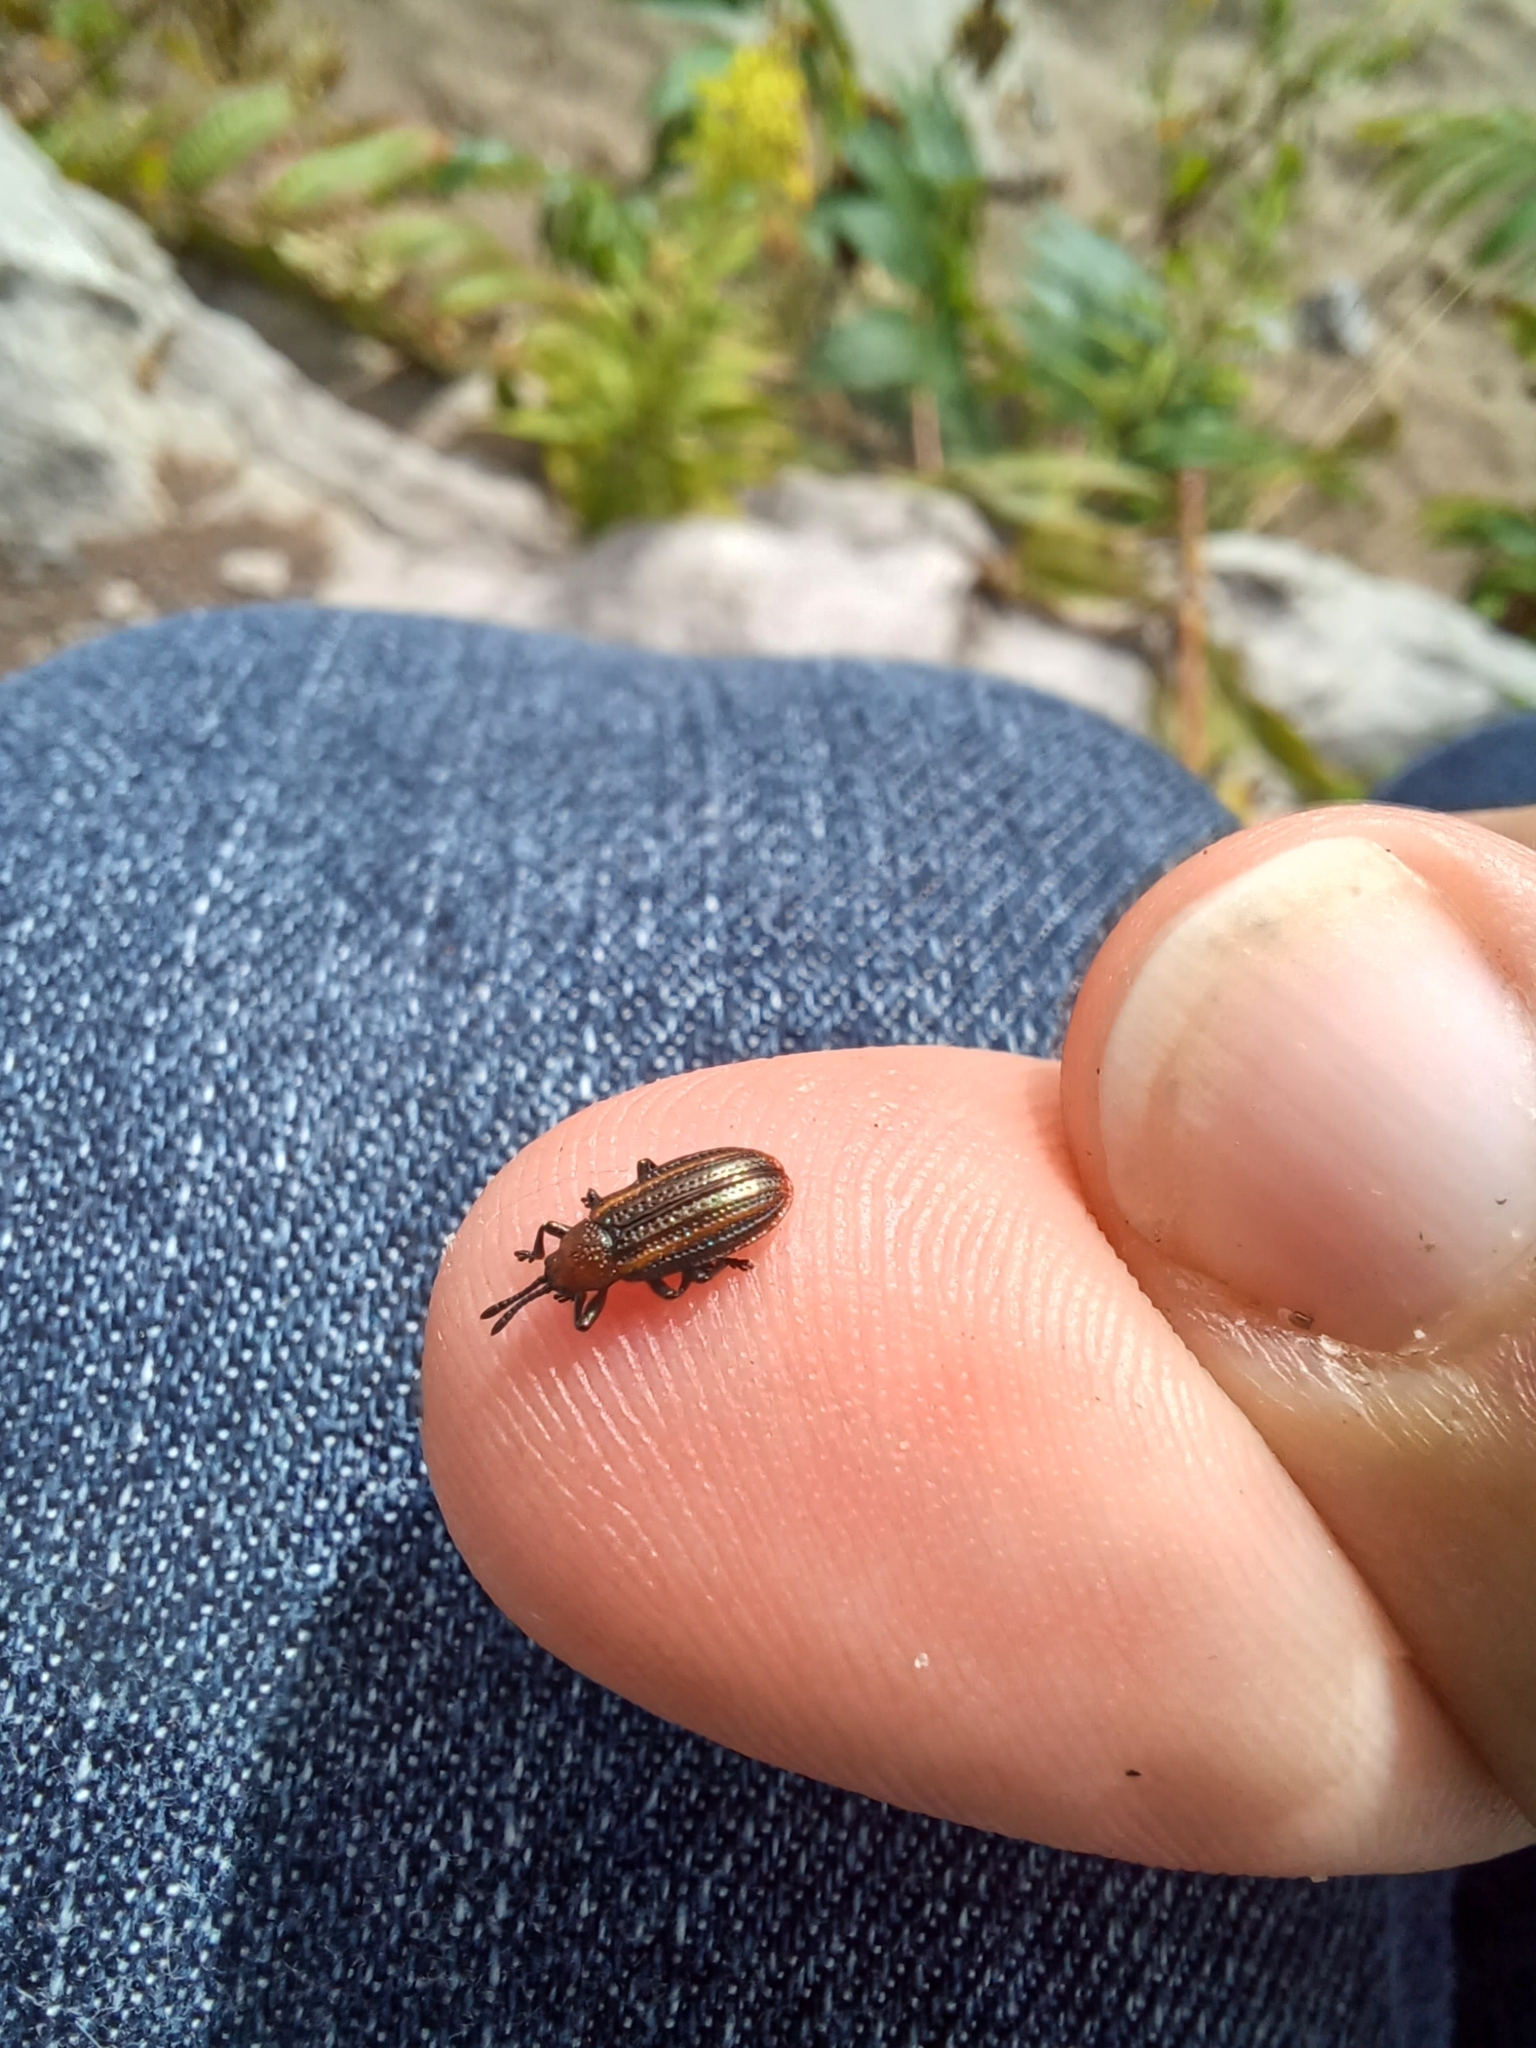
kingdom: Animalia
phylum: Arthropoda
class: Insecta
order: Coleoptera
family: Chrysomelidae
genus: Microrhopala
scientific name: Microrhopala vittata
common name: Goldenrod leaf miner beetle
